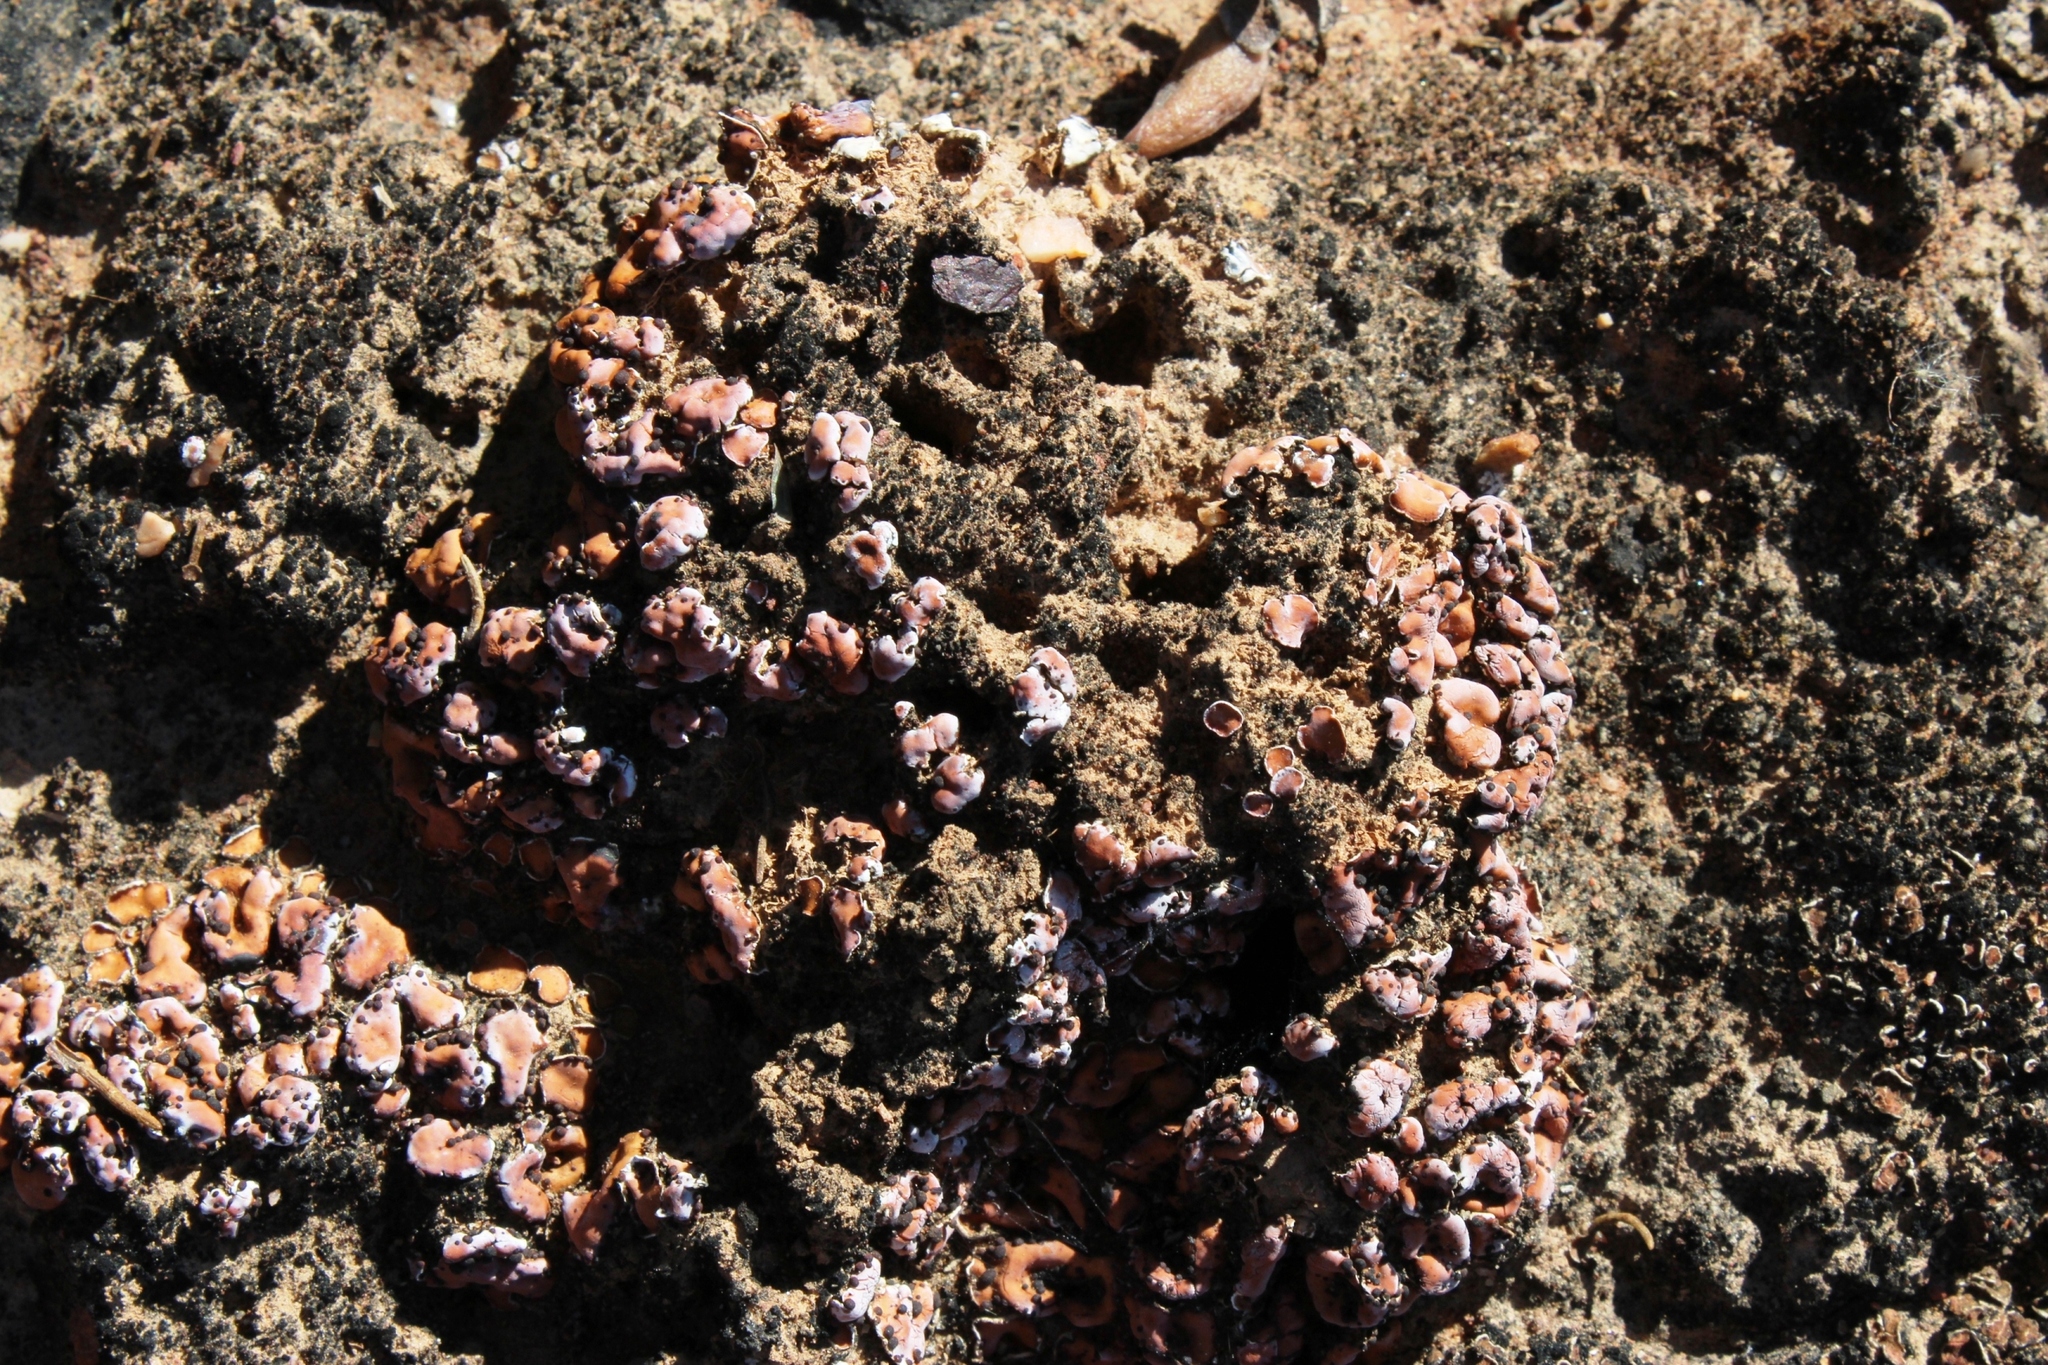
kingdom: Fungi
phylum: Ascomycota
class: Lecanoromycetes
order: Lecanorales
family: Psoraceae
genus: Psora
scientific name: Psora crenata
